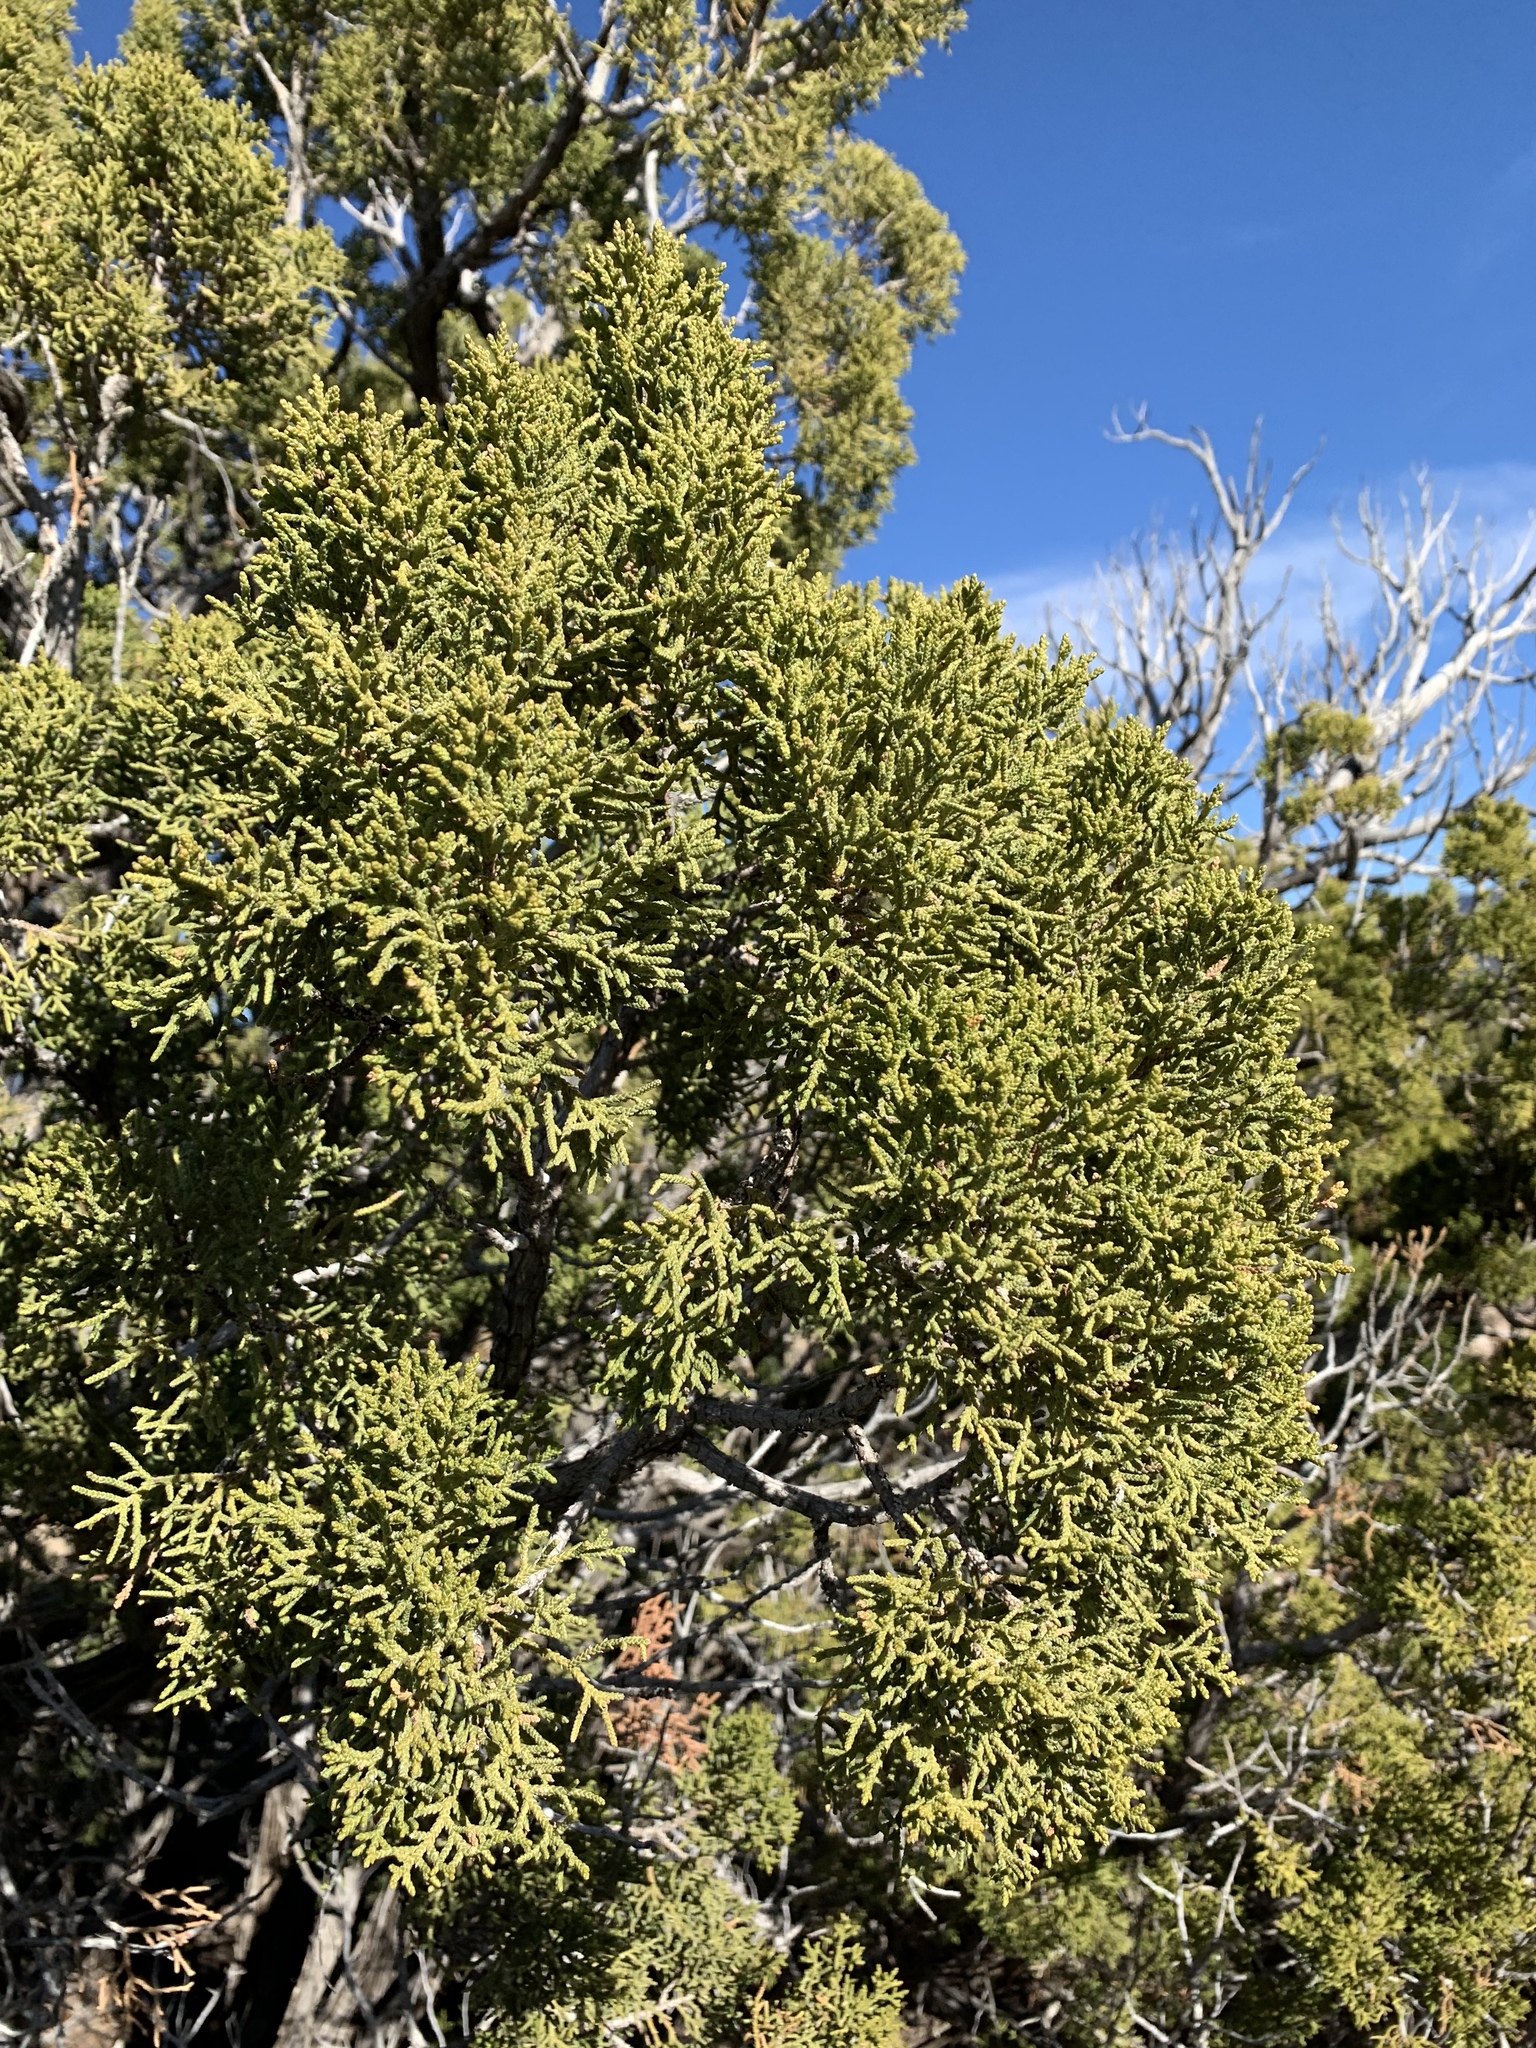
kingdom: Plantae
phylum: Tracheophyta
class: Pinopsida
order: Pinales
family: Cupressaceae
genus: Juniperus
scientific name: Juniperus monosperma
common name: One-seed juniper
